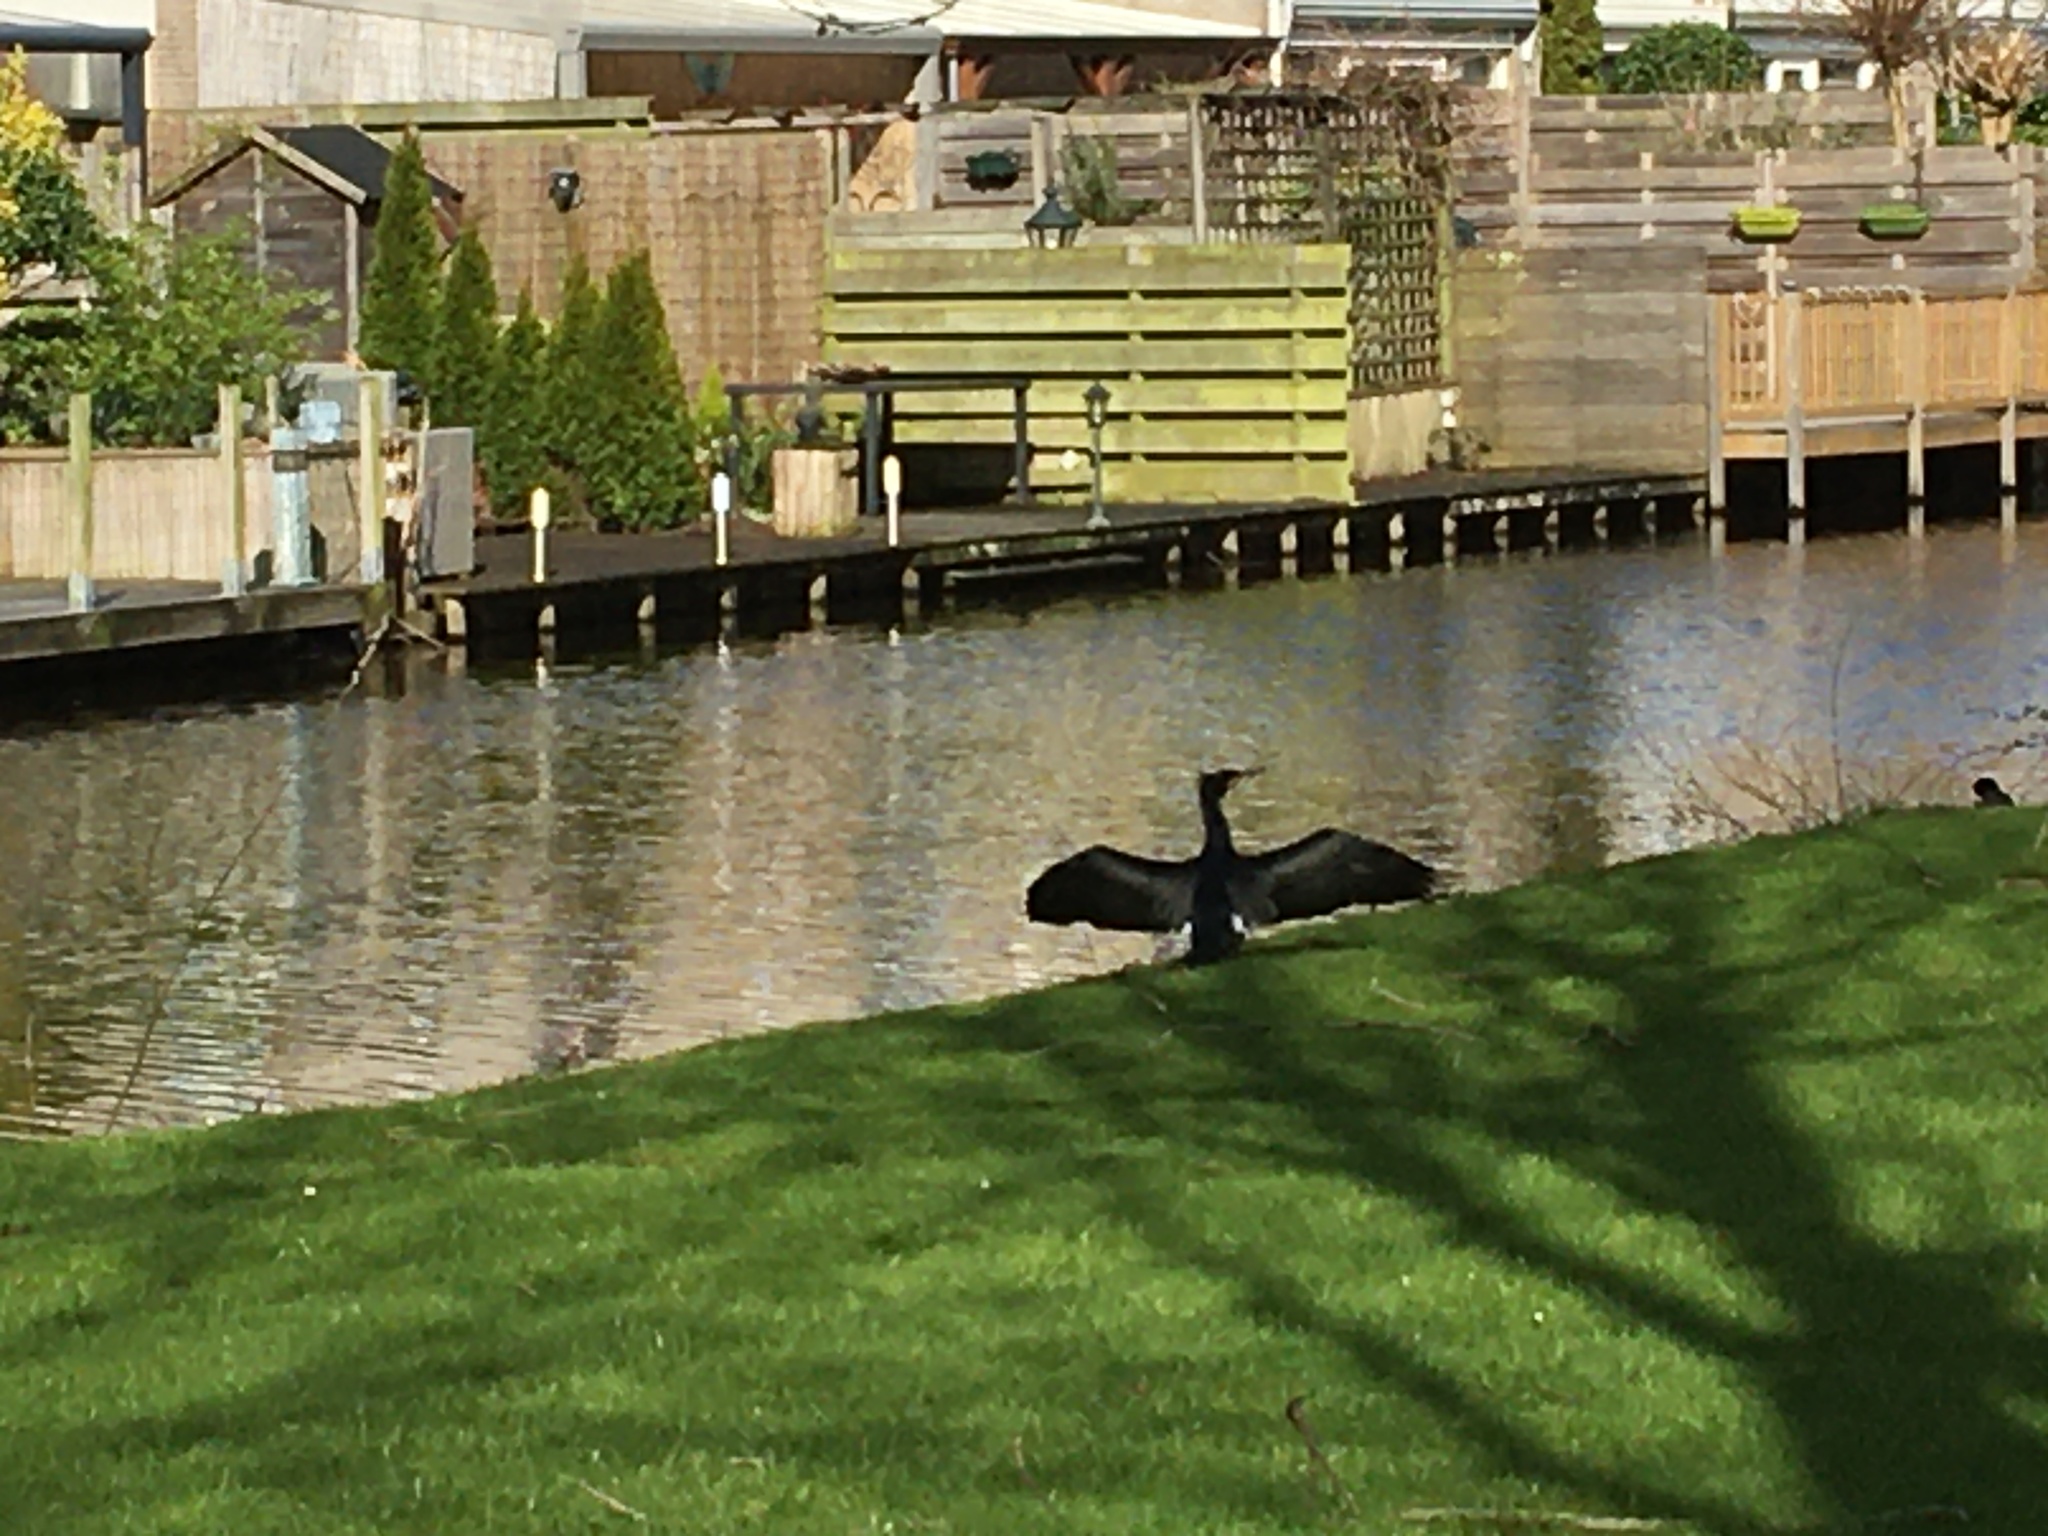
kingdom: Animalia
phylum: Chordata
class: Aves
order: Suliformes
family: Phalacrocoracidae
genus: Phalacrocorax
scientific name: Phalacrocorax carbo
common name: Great cormorant
